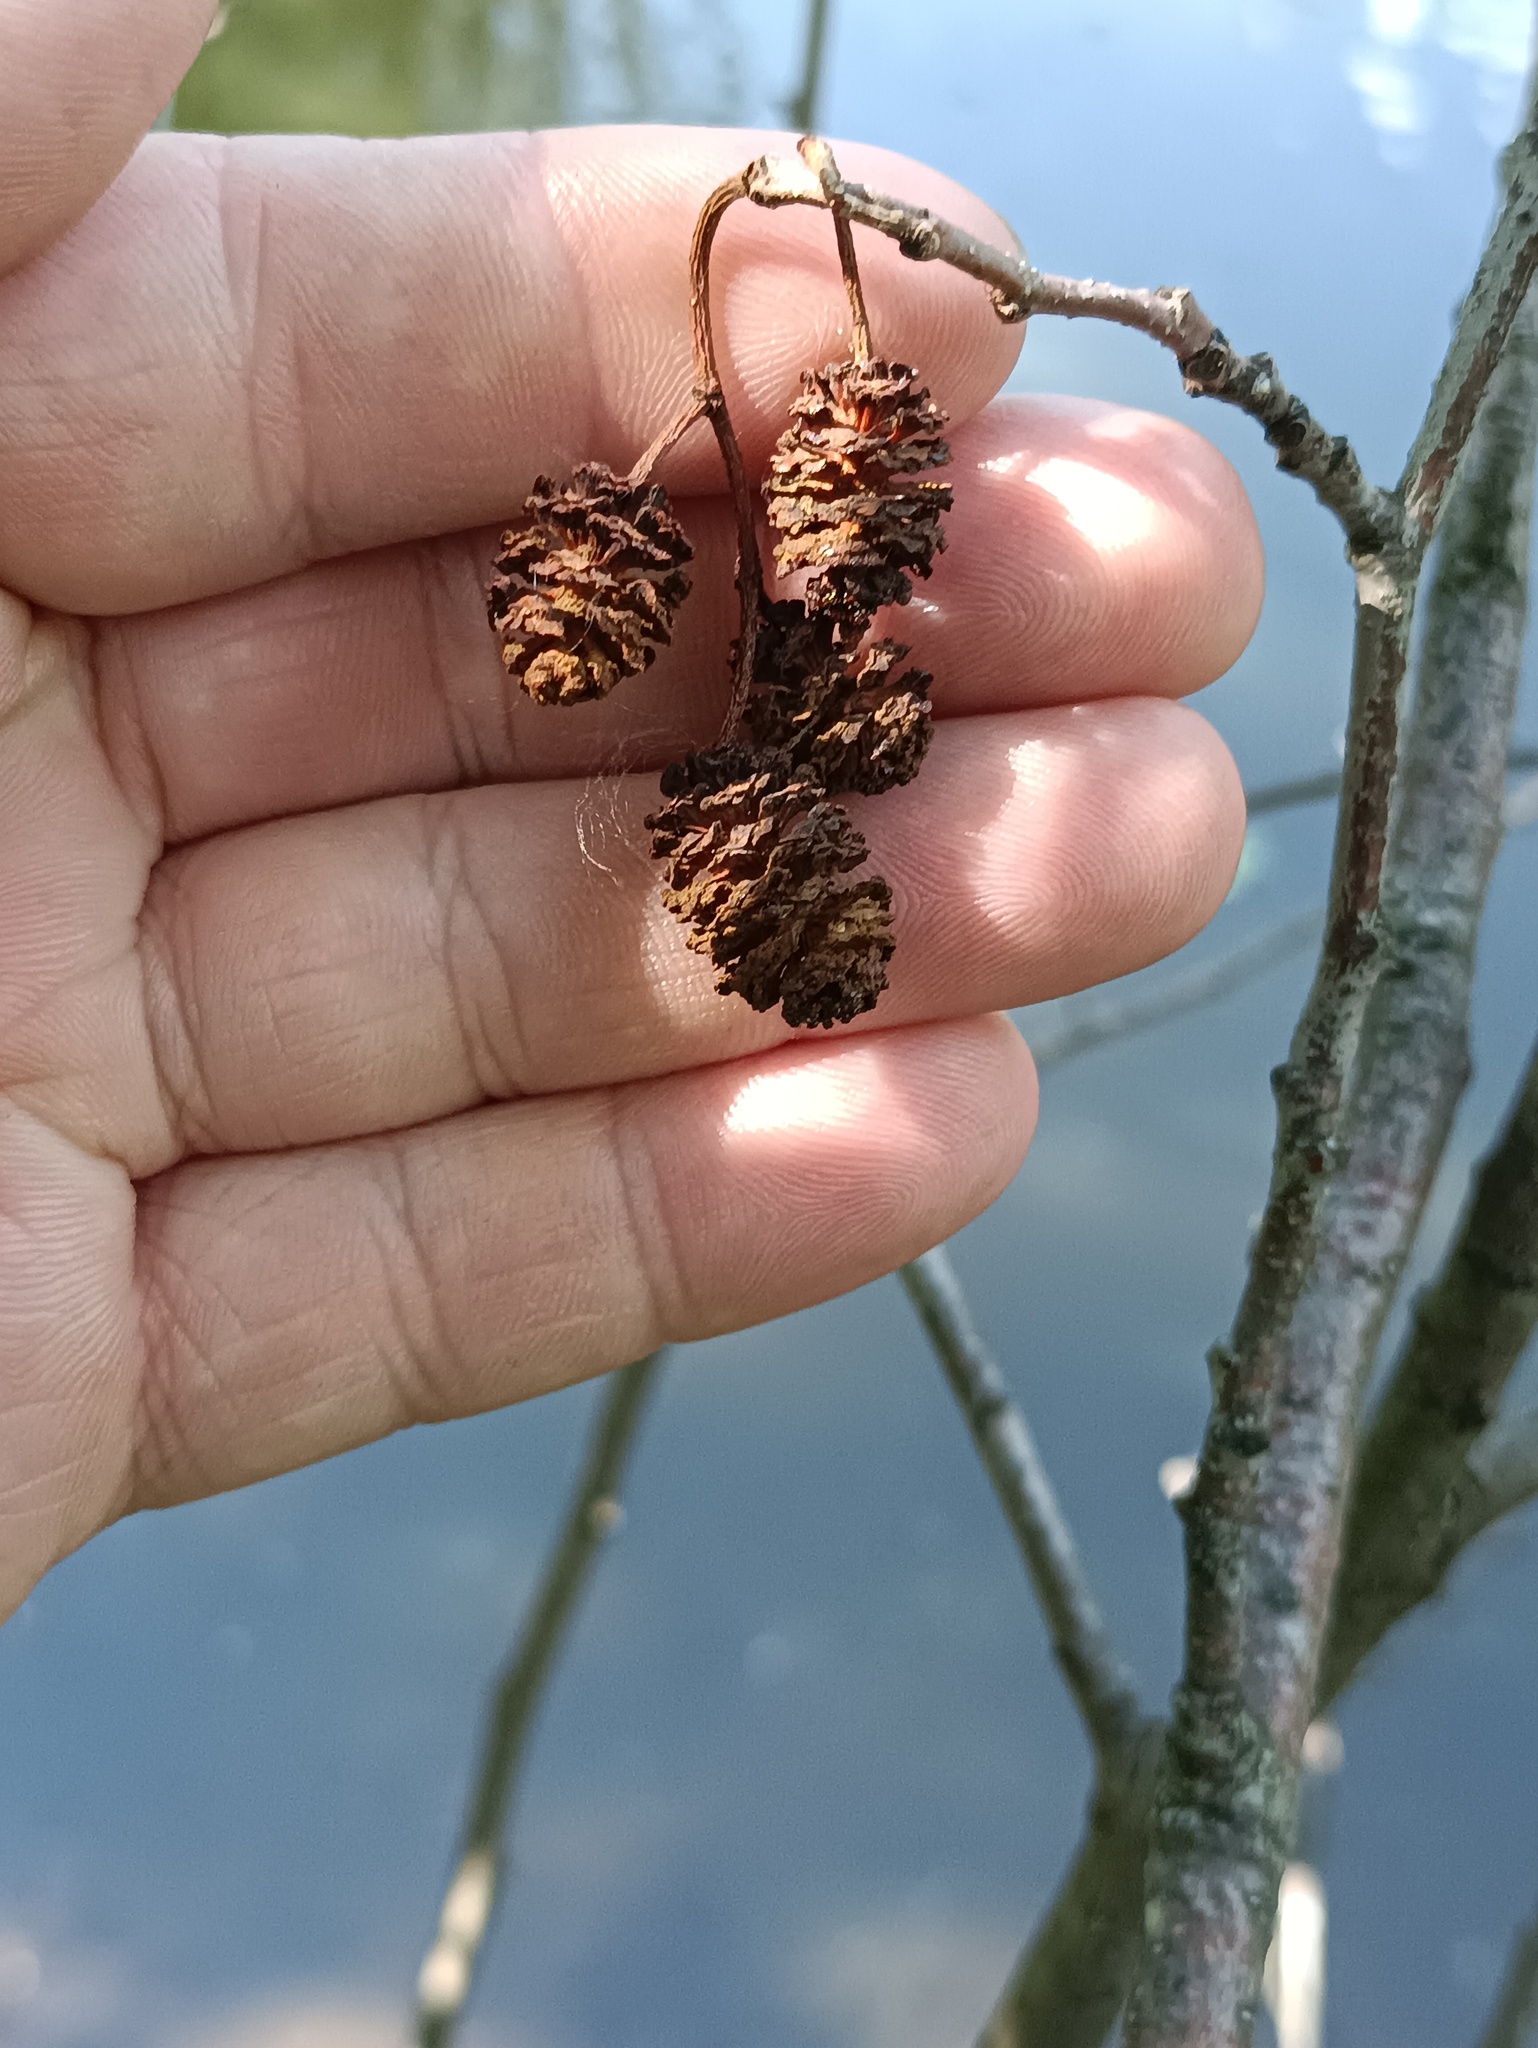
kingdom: Plantae
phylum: Tracheophyta
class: Magnoliopsida
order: Fagales
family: Betulaceae
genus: Alnus
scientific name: Alnus glutinosa
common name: Black alder
